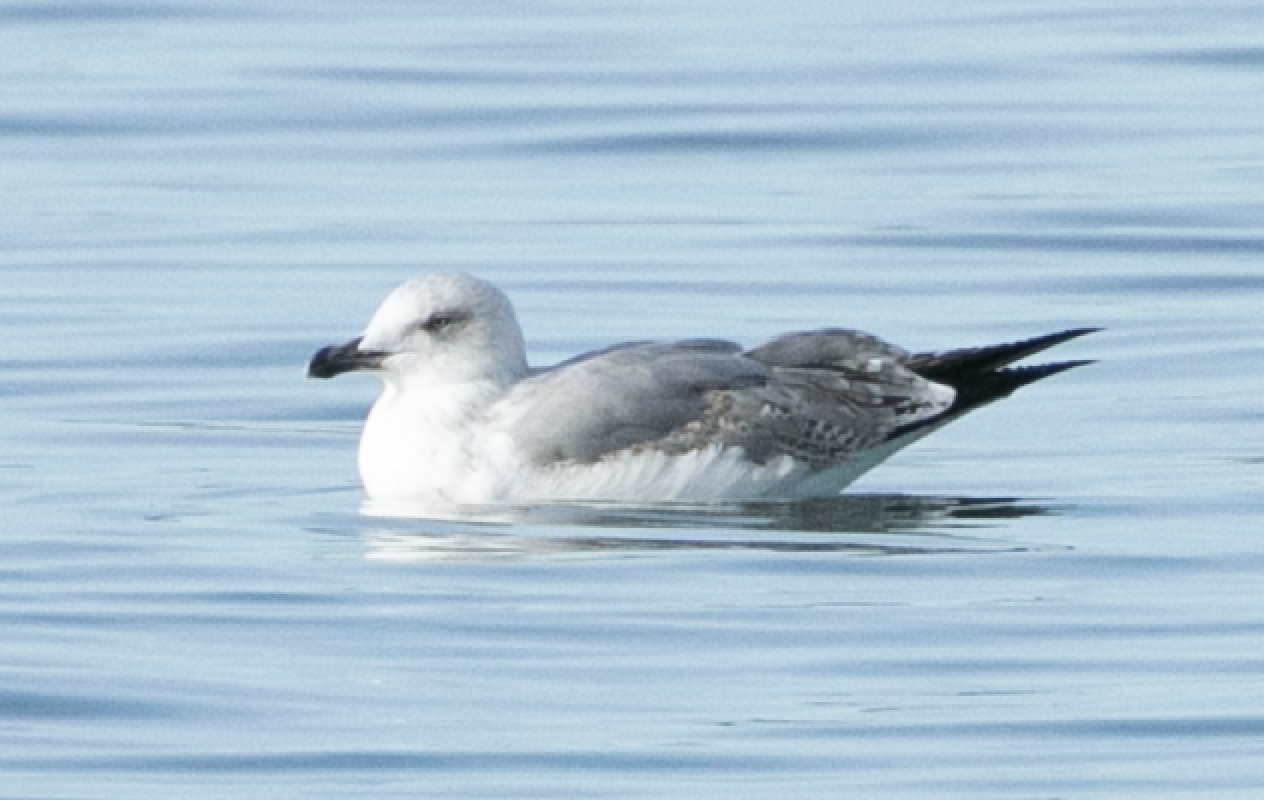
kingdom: Animalia
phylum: Chordata
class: Aves
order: Charadriiformes
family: Laridae
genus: Larus
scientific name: Larus michahellis
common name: Yellow-legged gull
